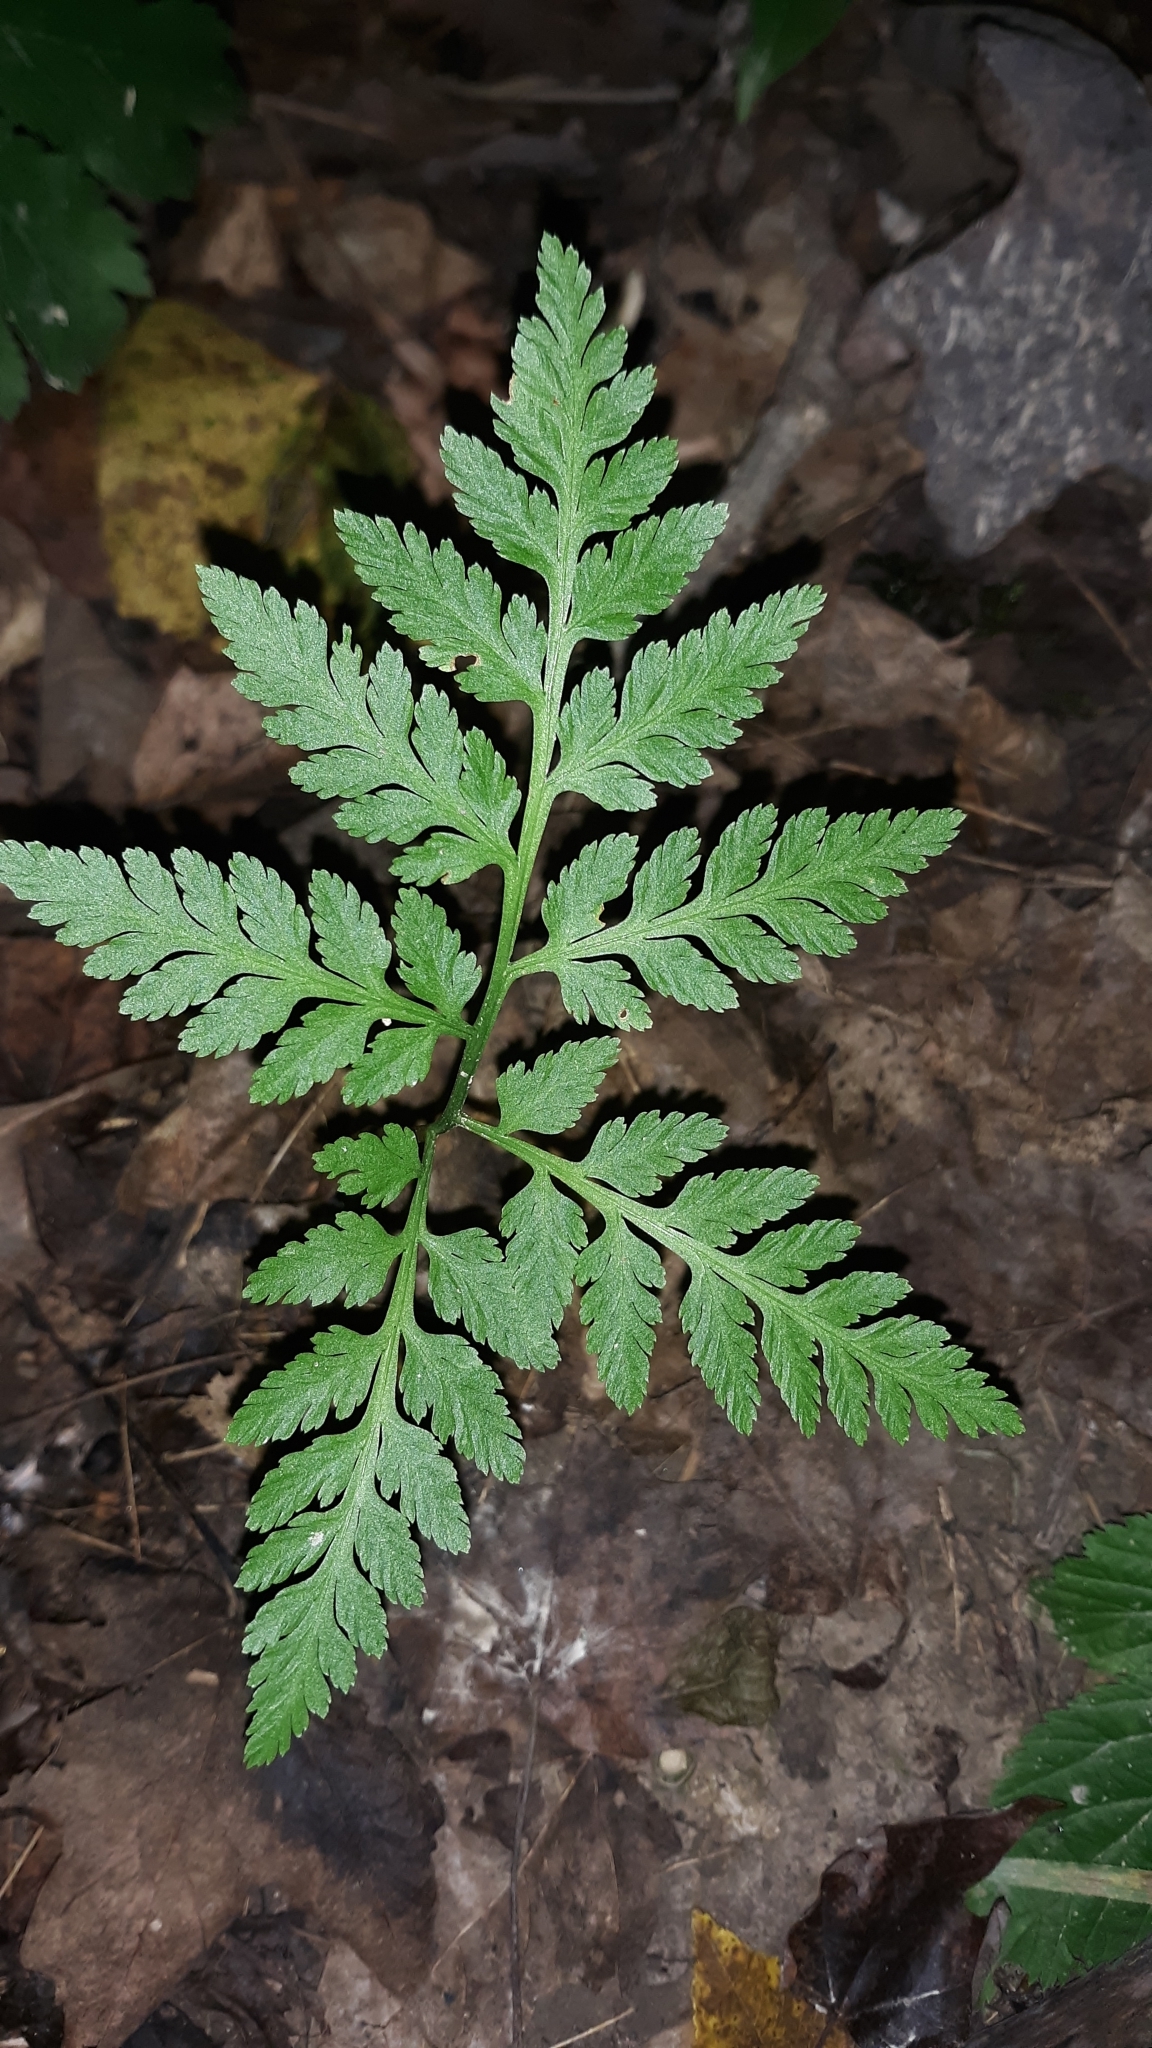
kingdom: Plantae
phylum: Tracheophyta
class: Polypodiopsida
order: Ophioglossales
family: Ophioglossaceae
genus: Botrypus
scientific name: Botrypus virginianus
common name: Common grapefern
